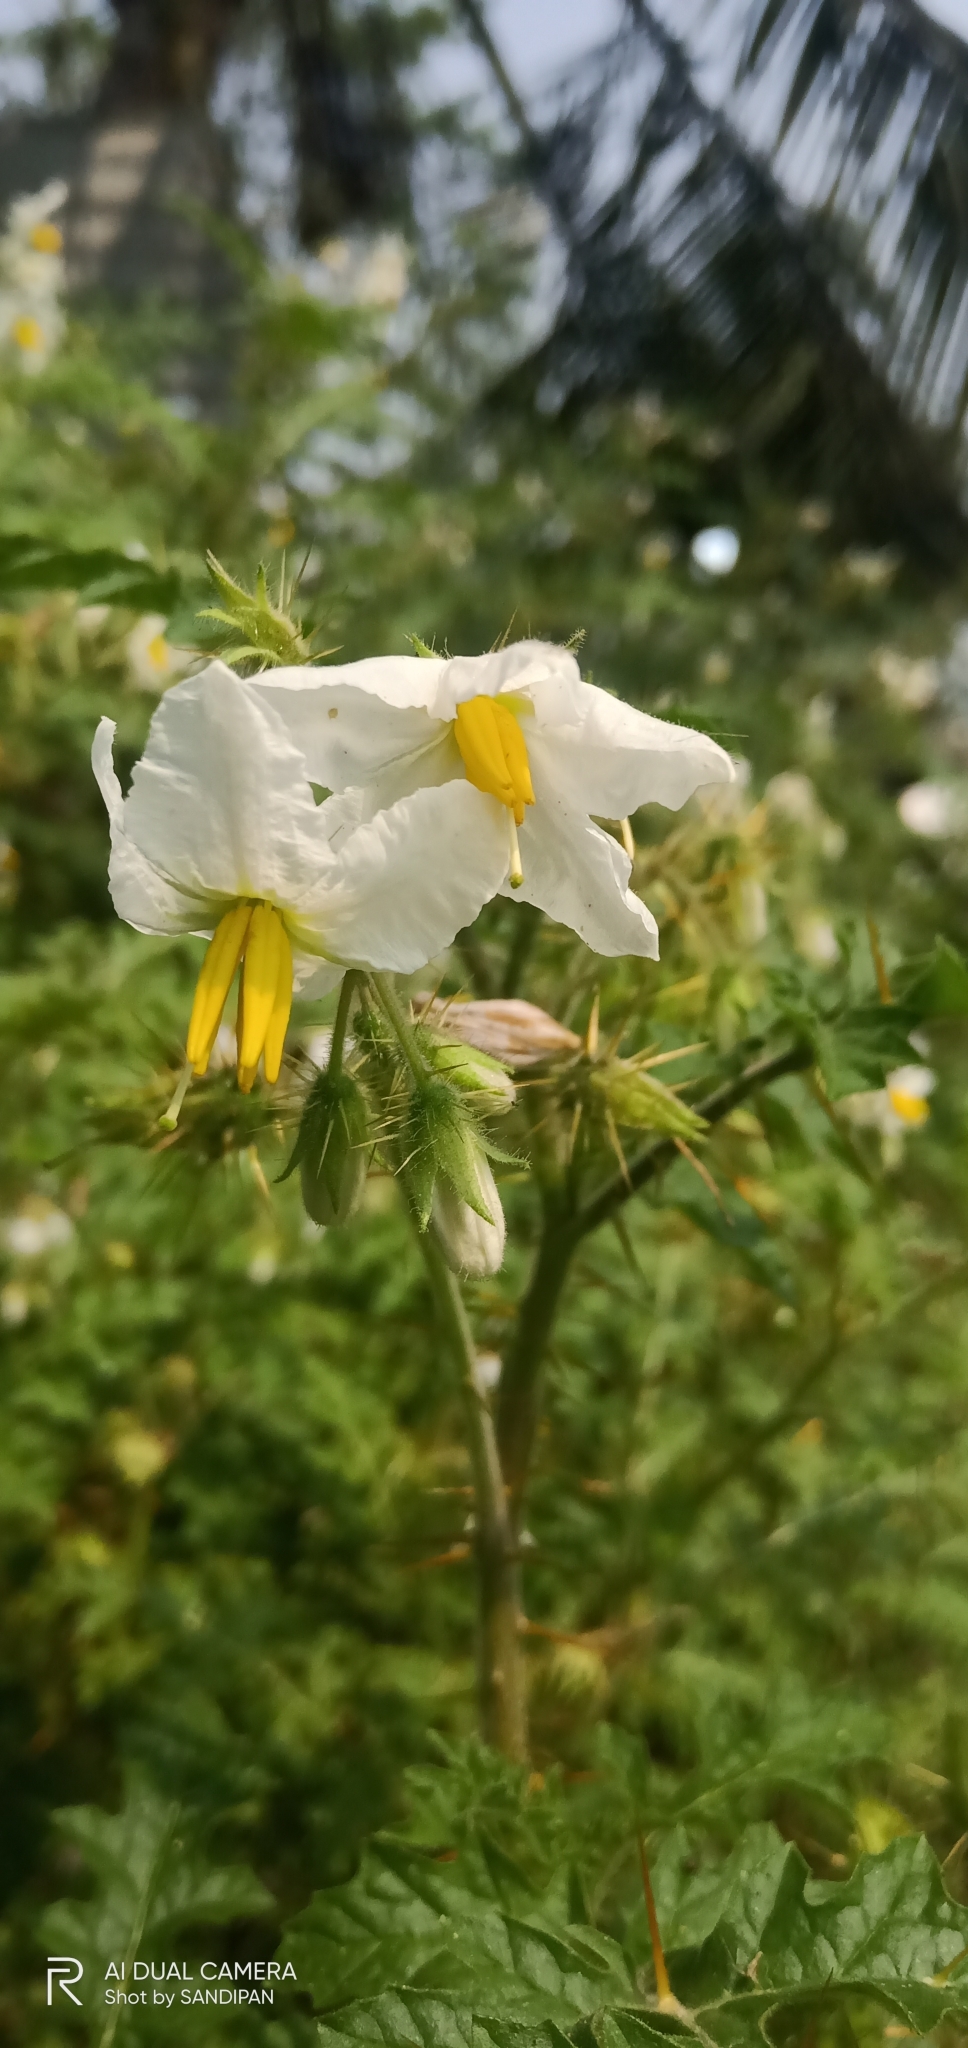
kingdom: Plantae
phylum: Tracheophyta
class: Magnoliopsida
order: Solanales
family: Solanaceae
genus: Solanum
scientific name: Solanum sisymbriifolium
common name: Red buffalo-bur
